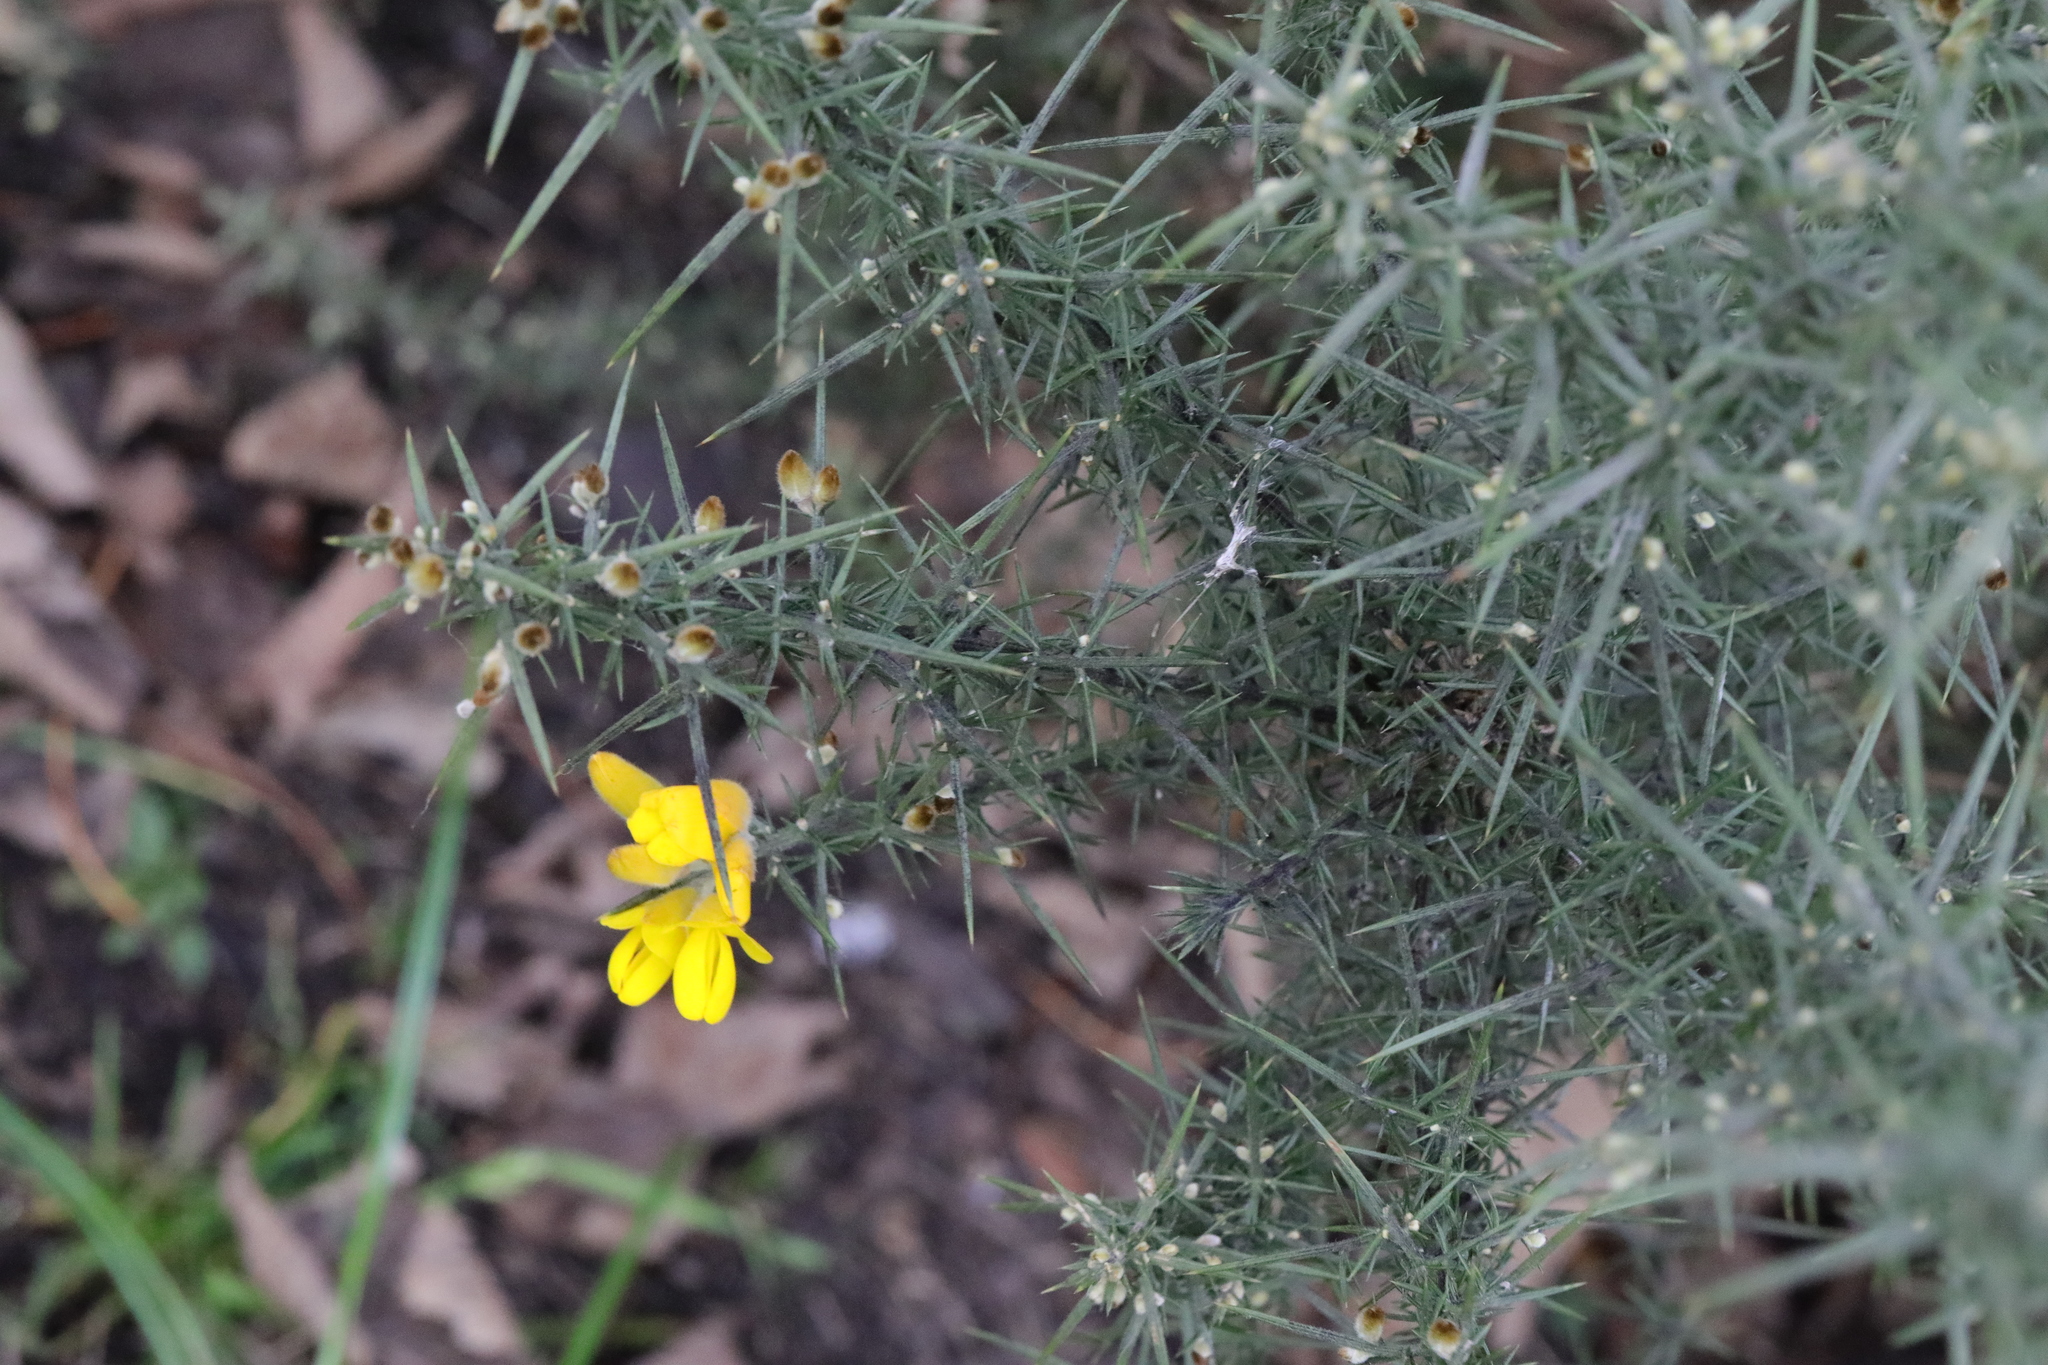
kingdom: Plantae
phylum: Tracheophyta
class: Magnoliopsida
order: Fabales
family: Fabaceae
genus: Ulex
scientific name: Ulex europaeus
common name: Common gorse
